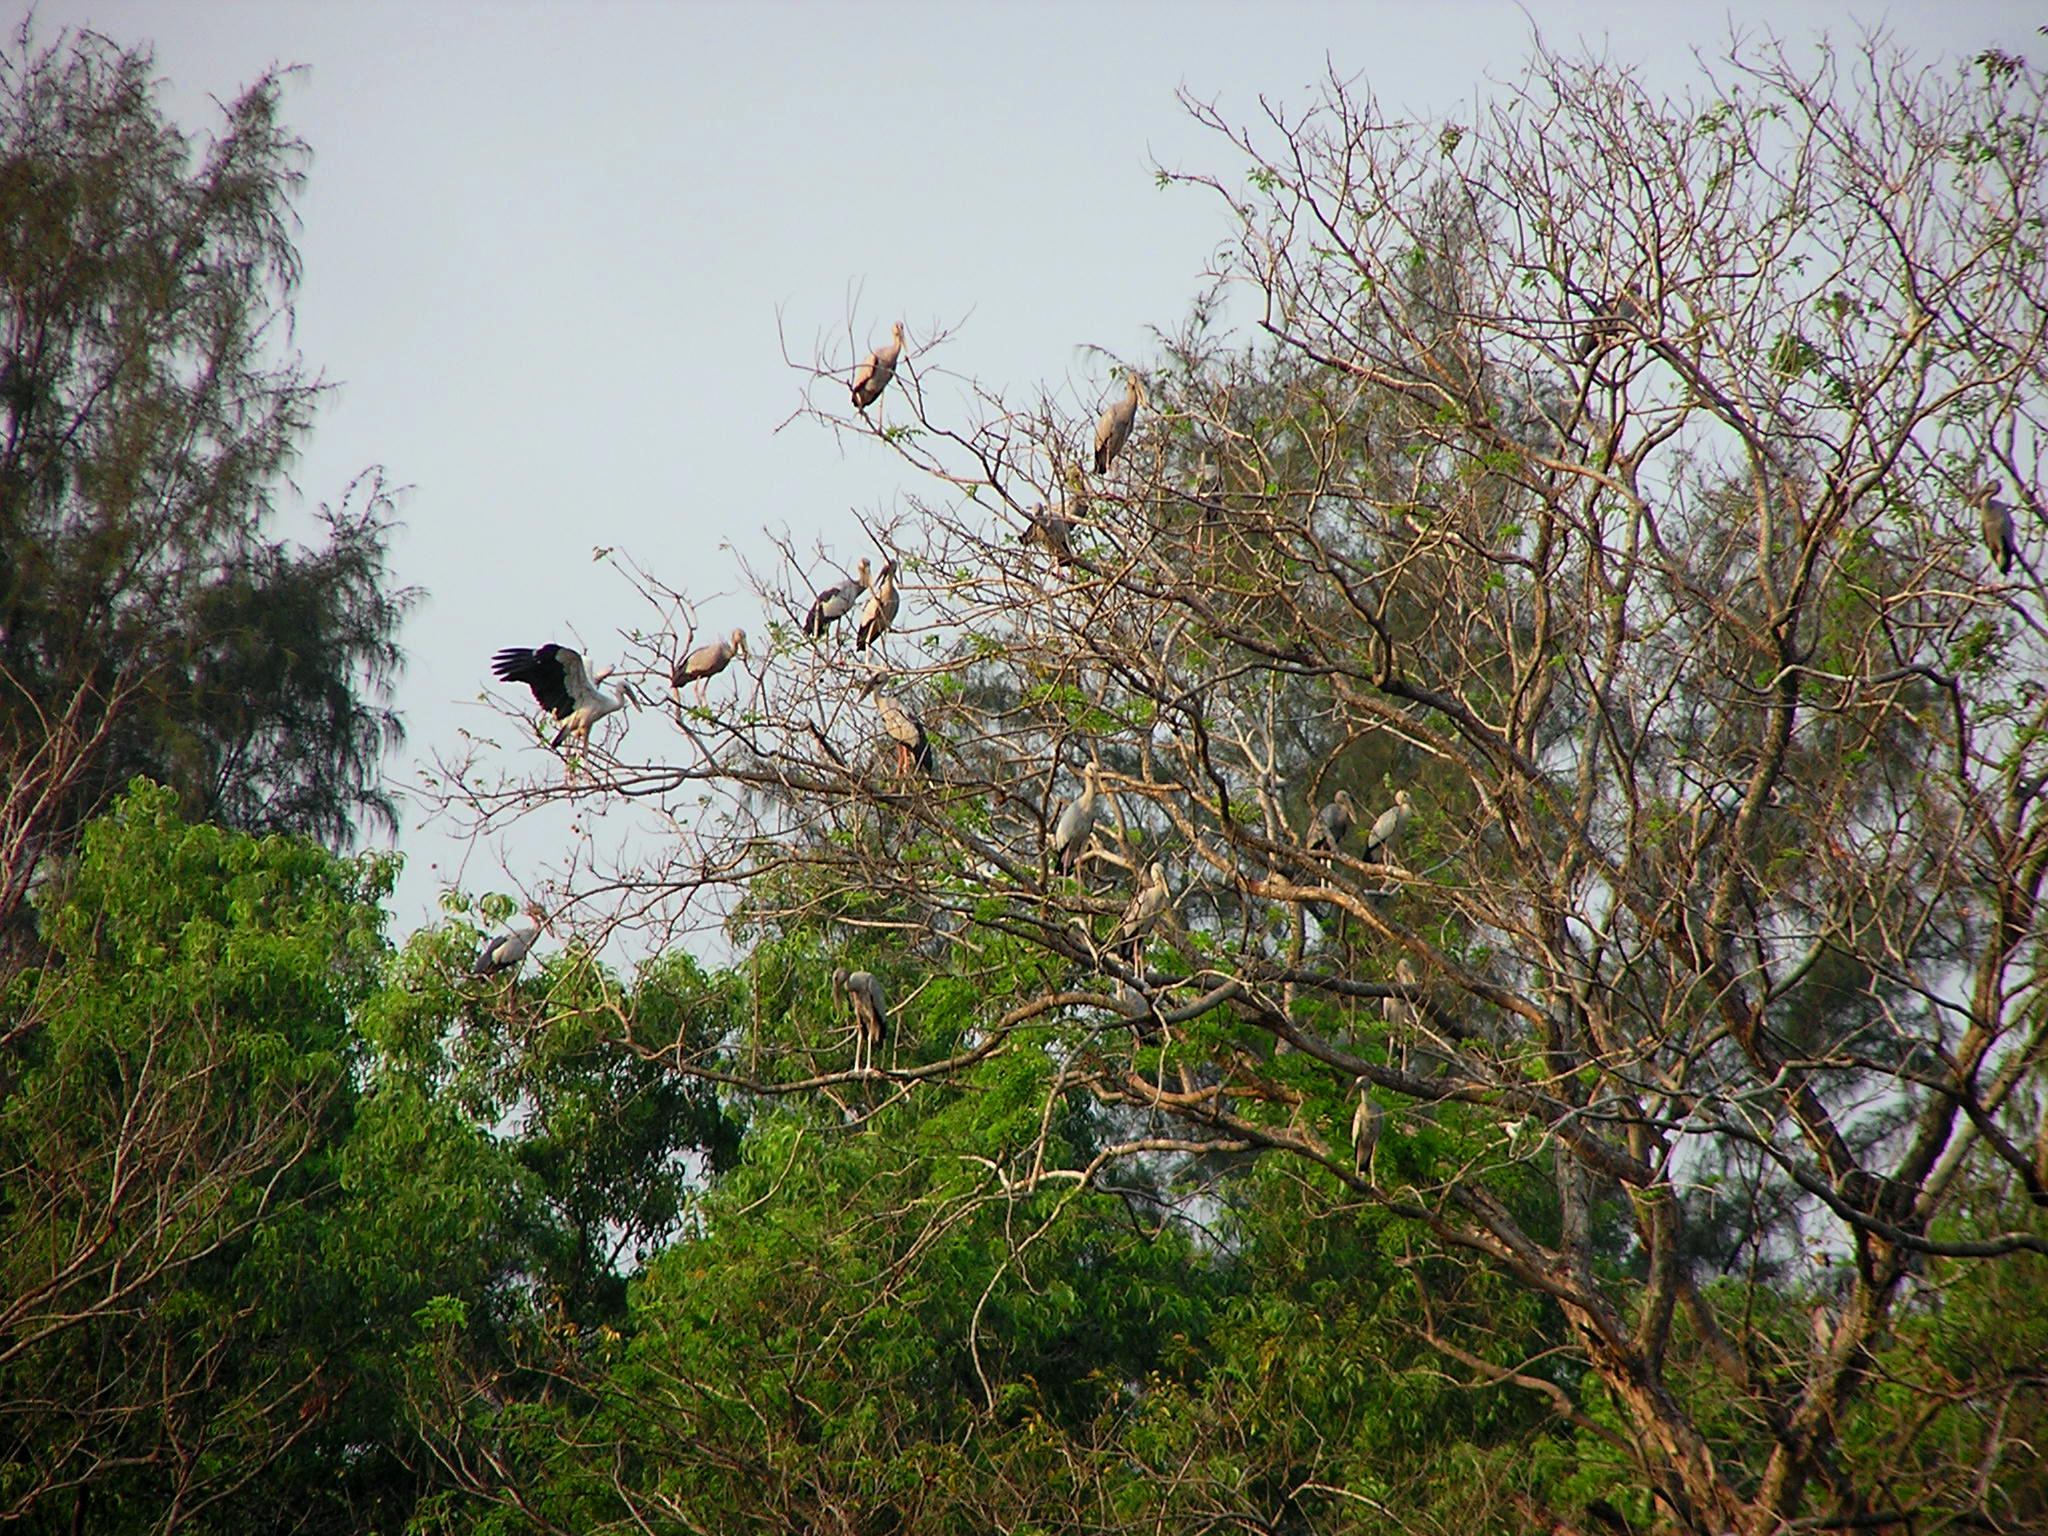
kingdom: Animalia
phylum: Chordata
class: Aves
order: Ciconiiformes
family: Ciconiidae
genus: Anastomus
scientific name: Anastomus oscitans
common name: Asian openbill
